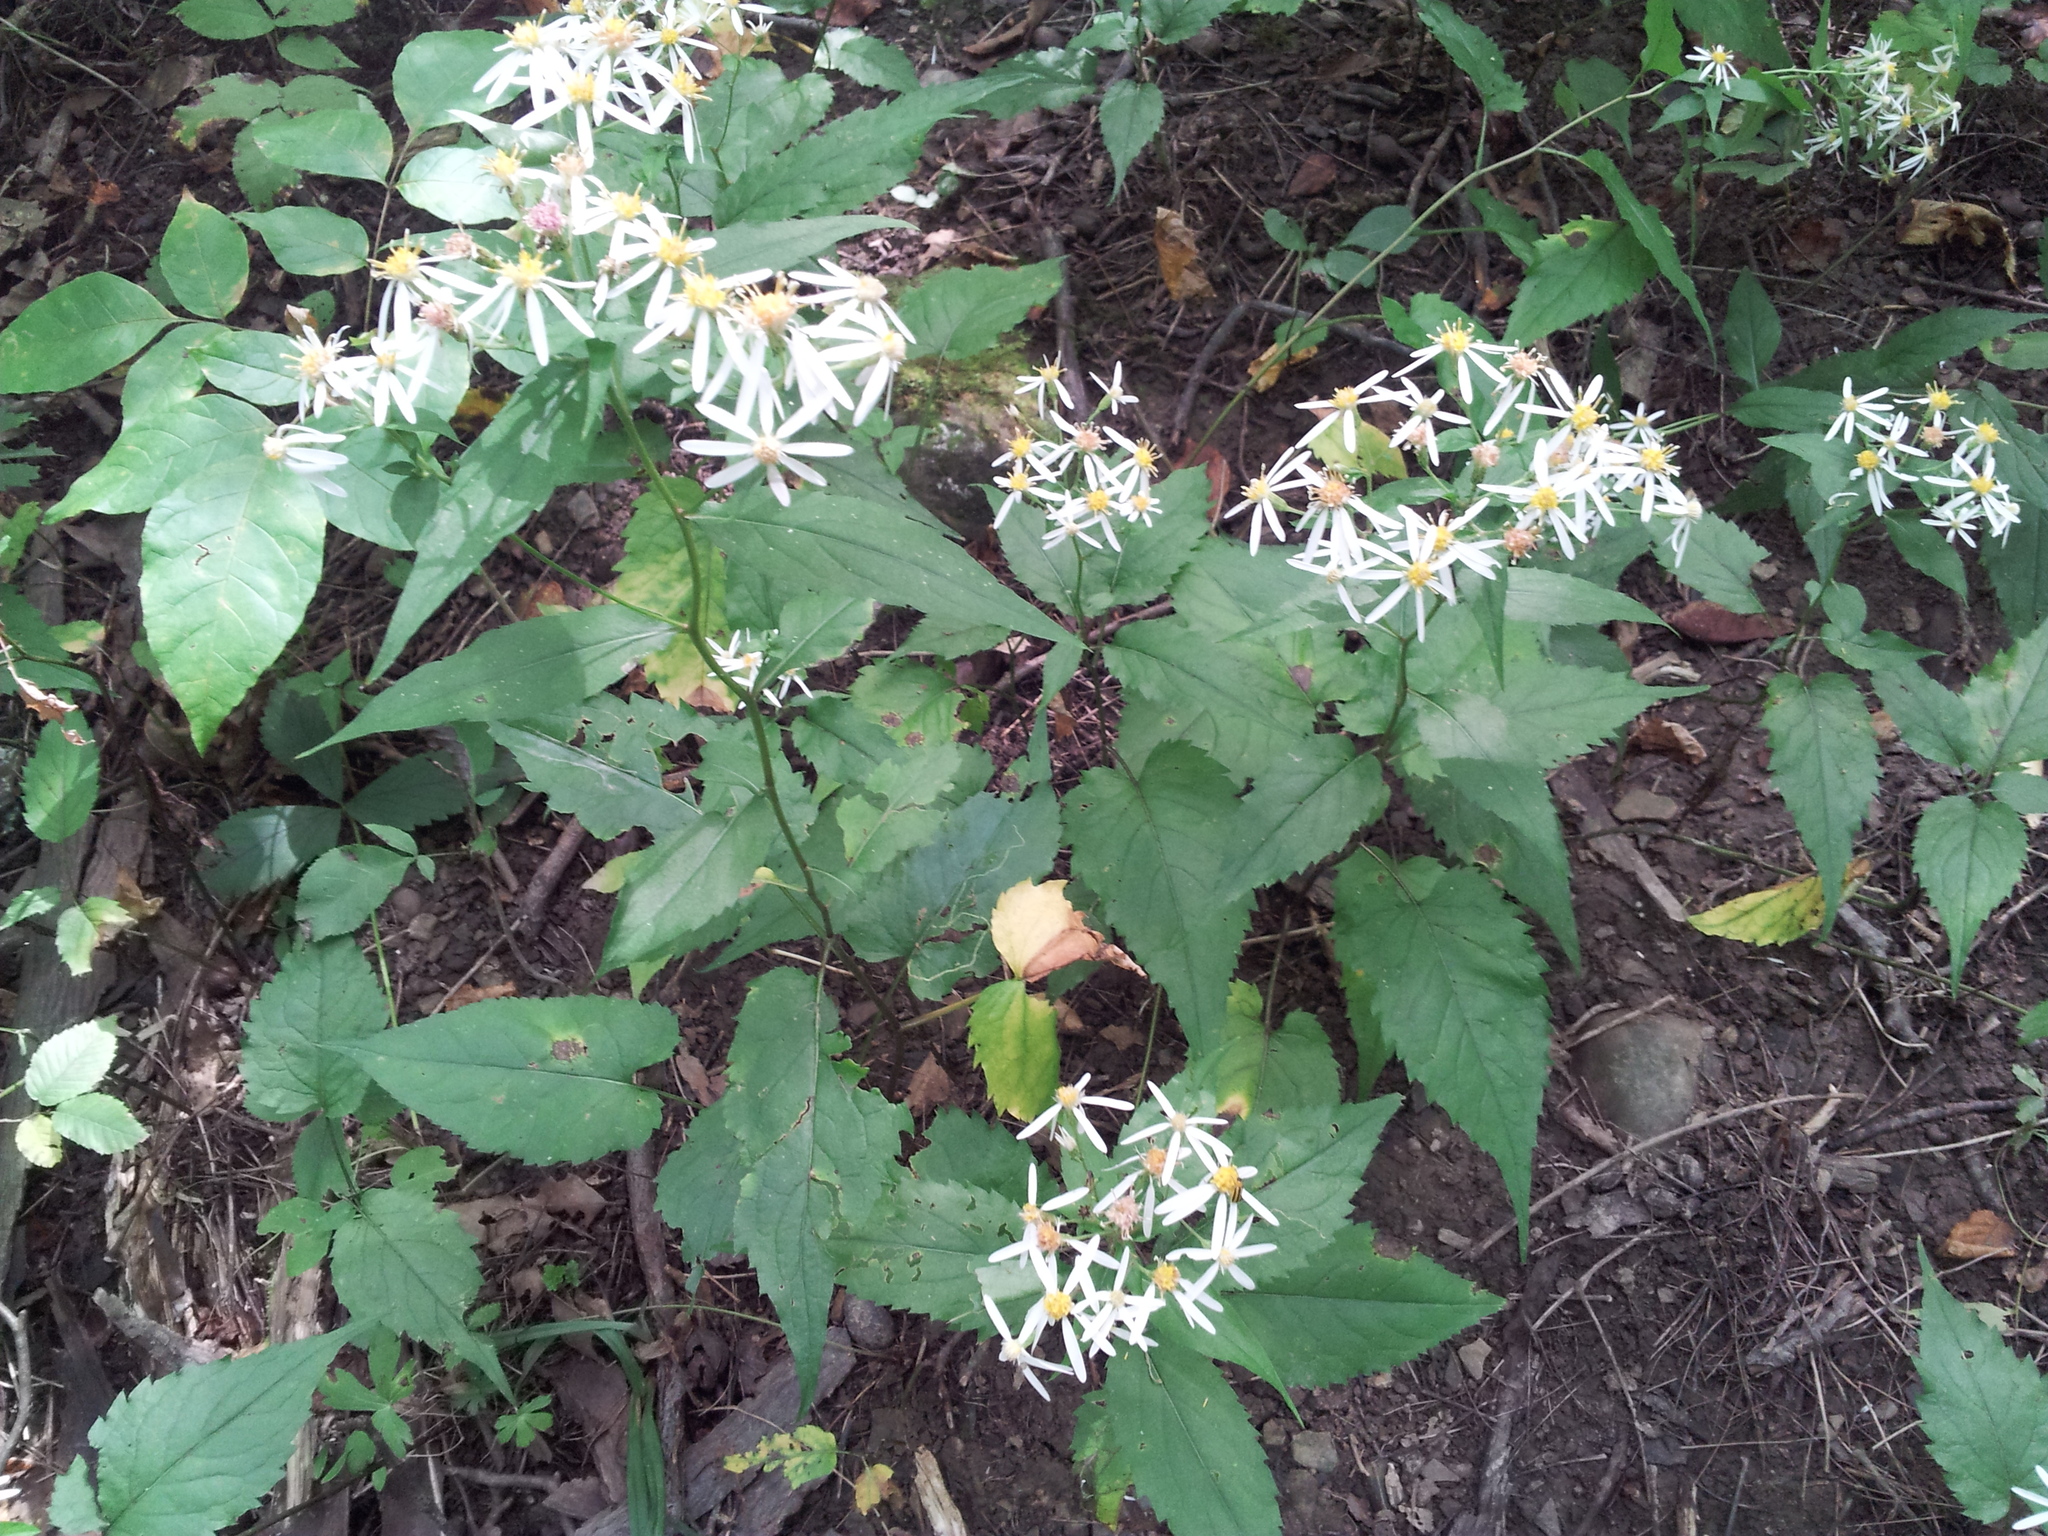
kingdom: Plantae
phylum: Tracheophyta
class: Magnoliopsida
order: Asterales
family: Asteraceae
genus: Eurybia
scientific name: Eurybia divaricata
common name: White wood aster
